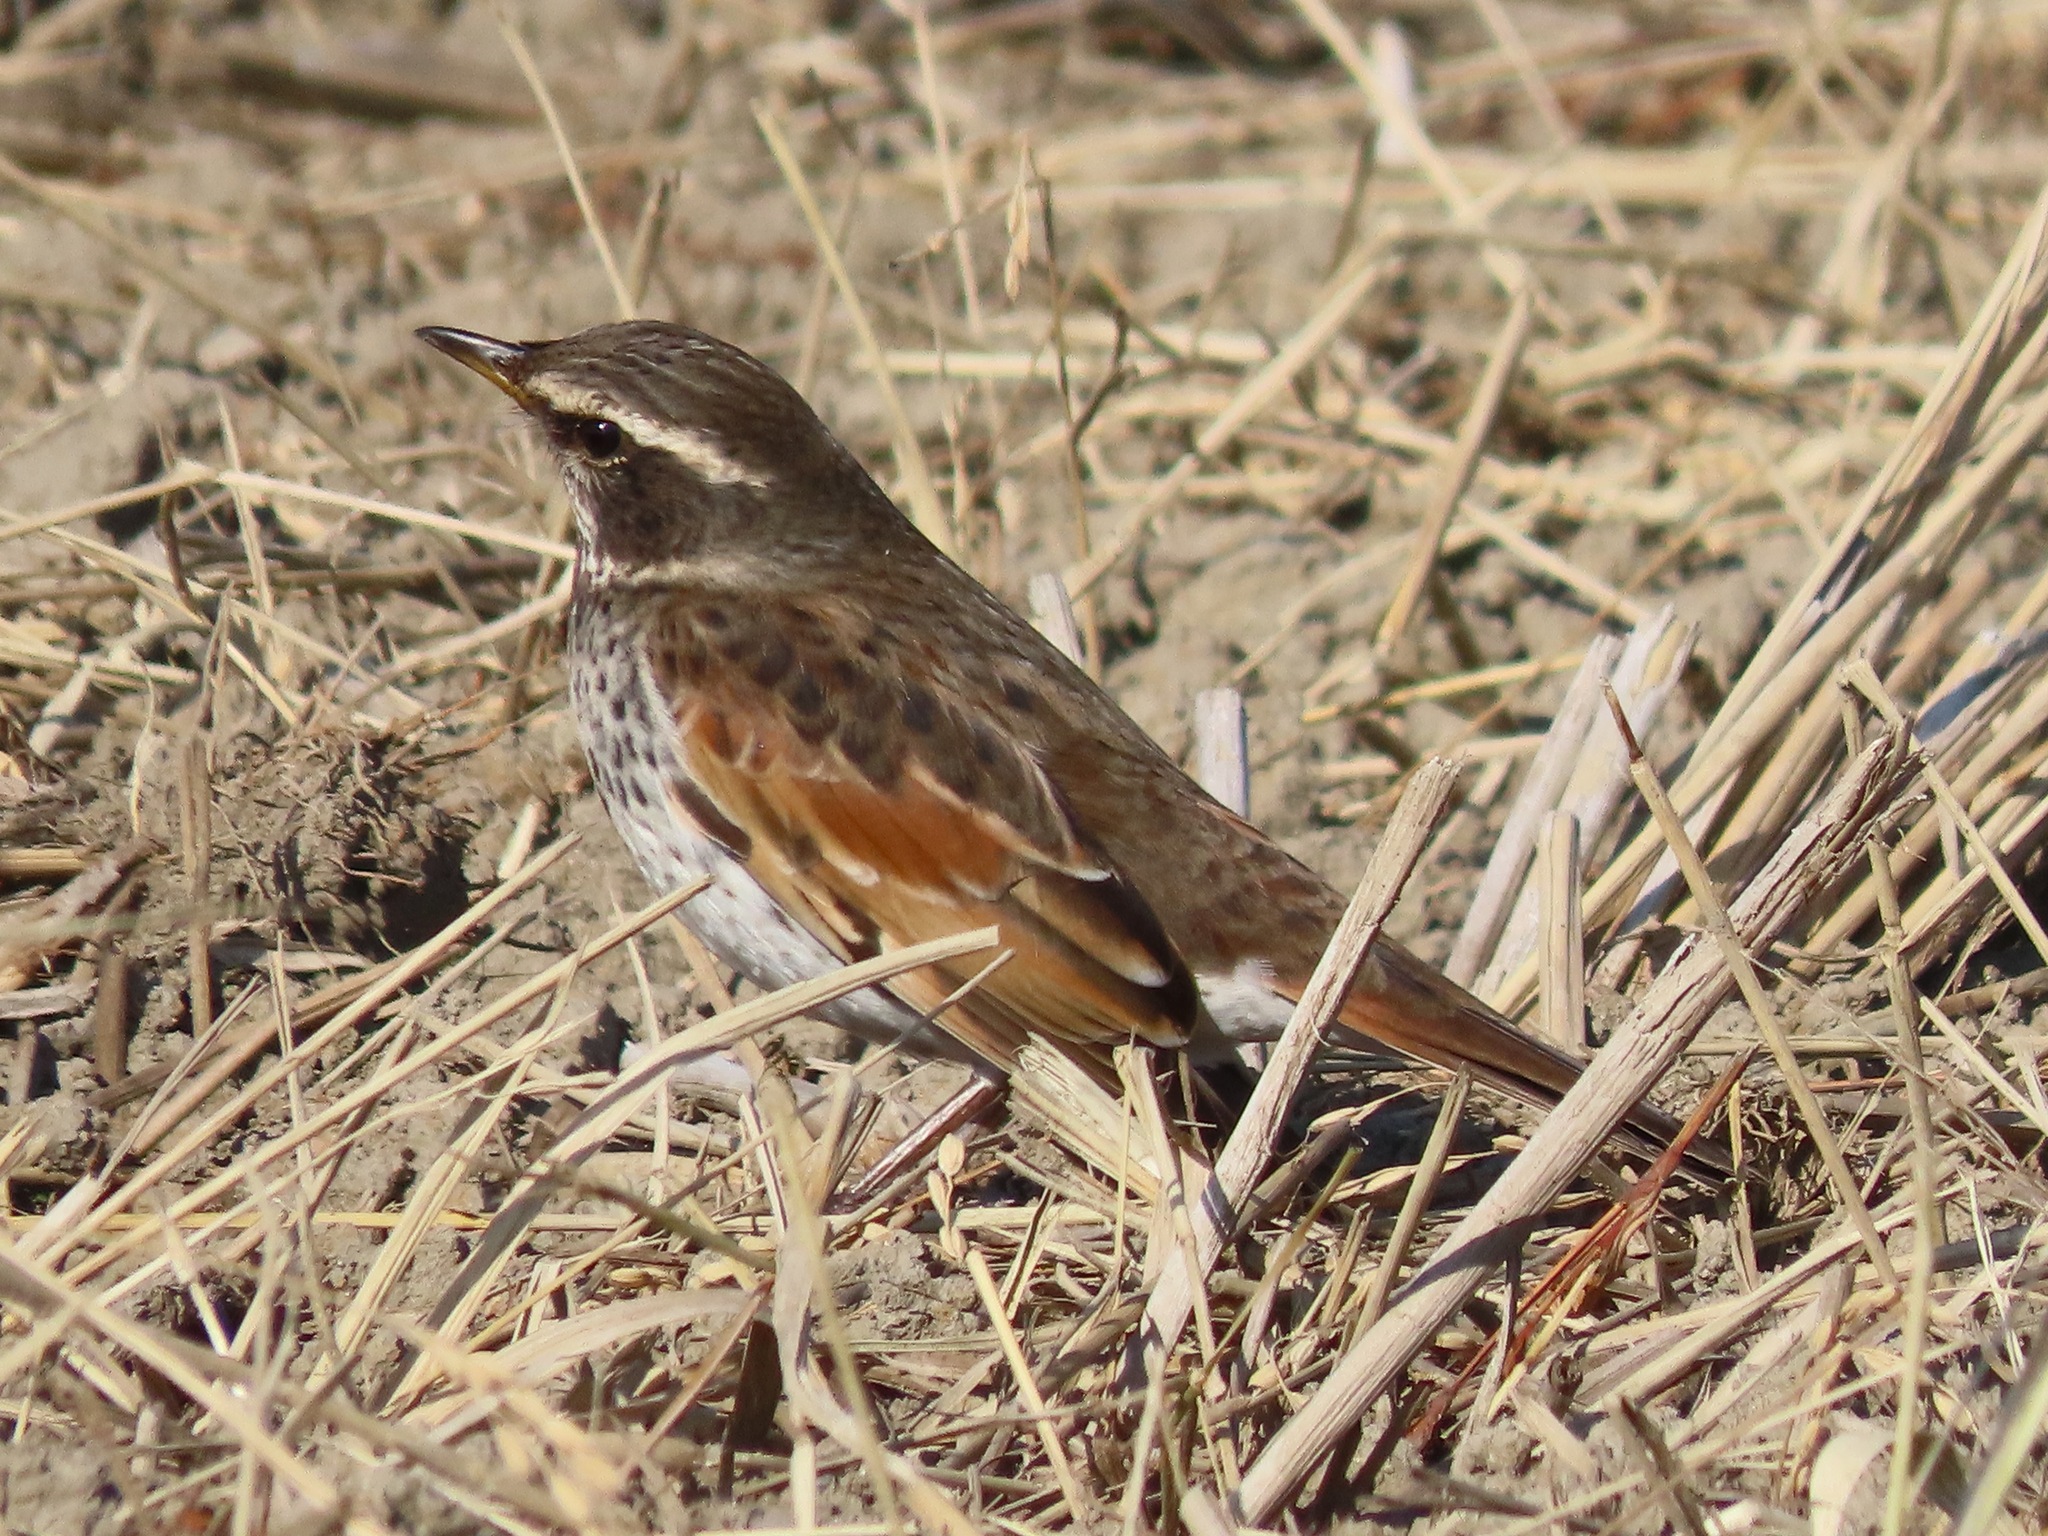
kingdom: Animalia
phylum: Chordata
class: Aves
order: Passeriformes
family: Turdidae
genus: Turdus
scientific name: Turdus eunomus
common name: Dusky thrush
